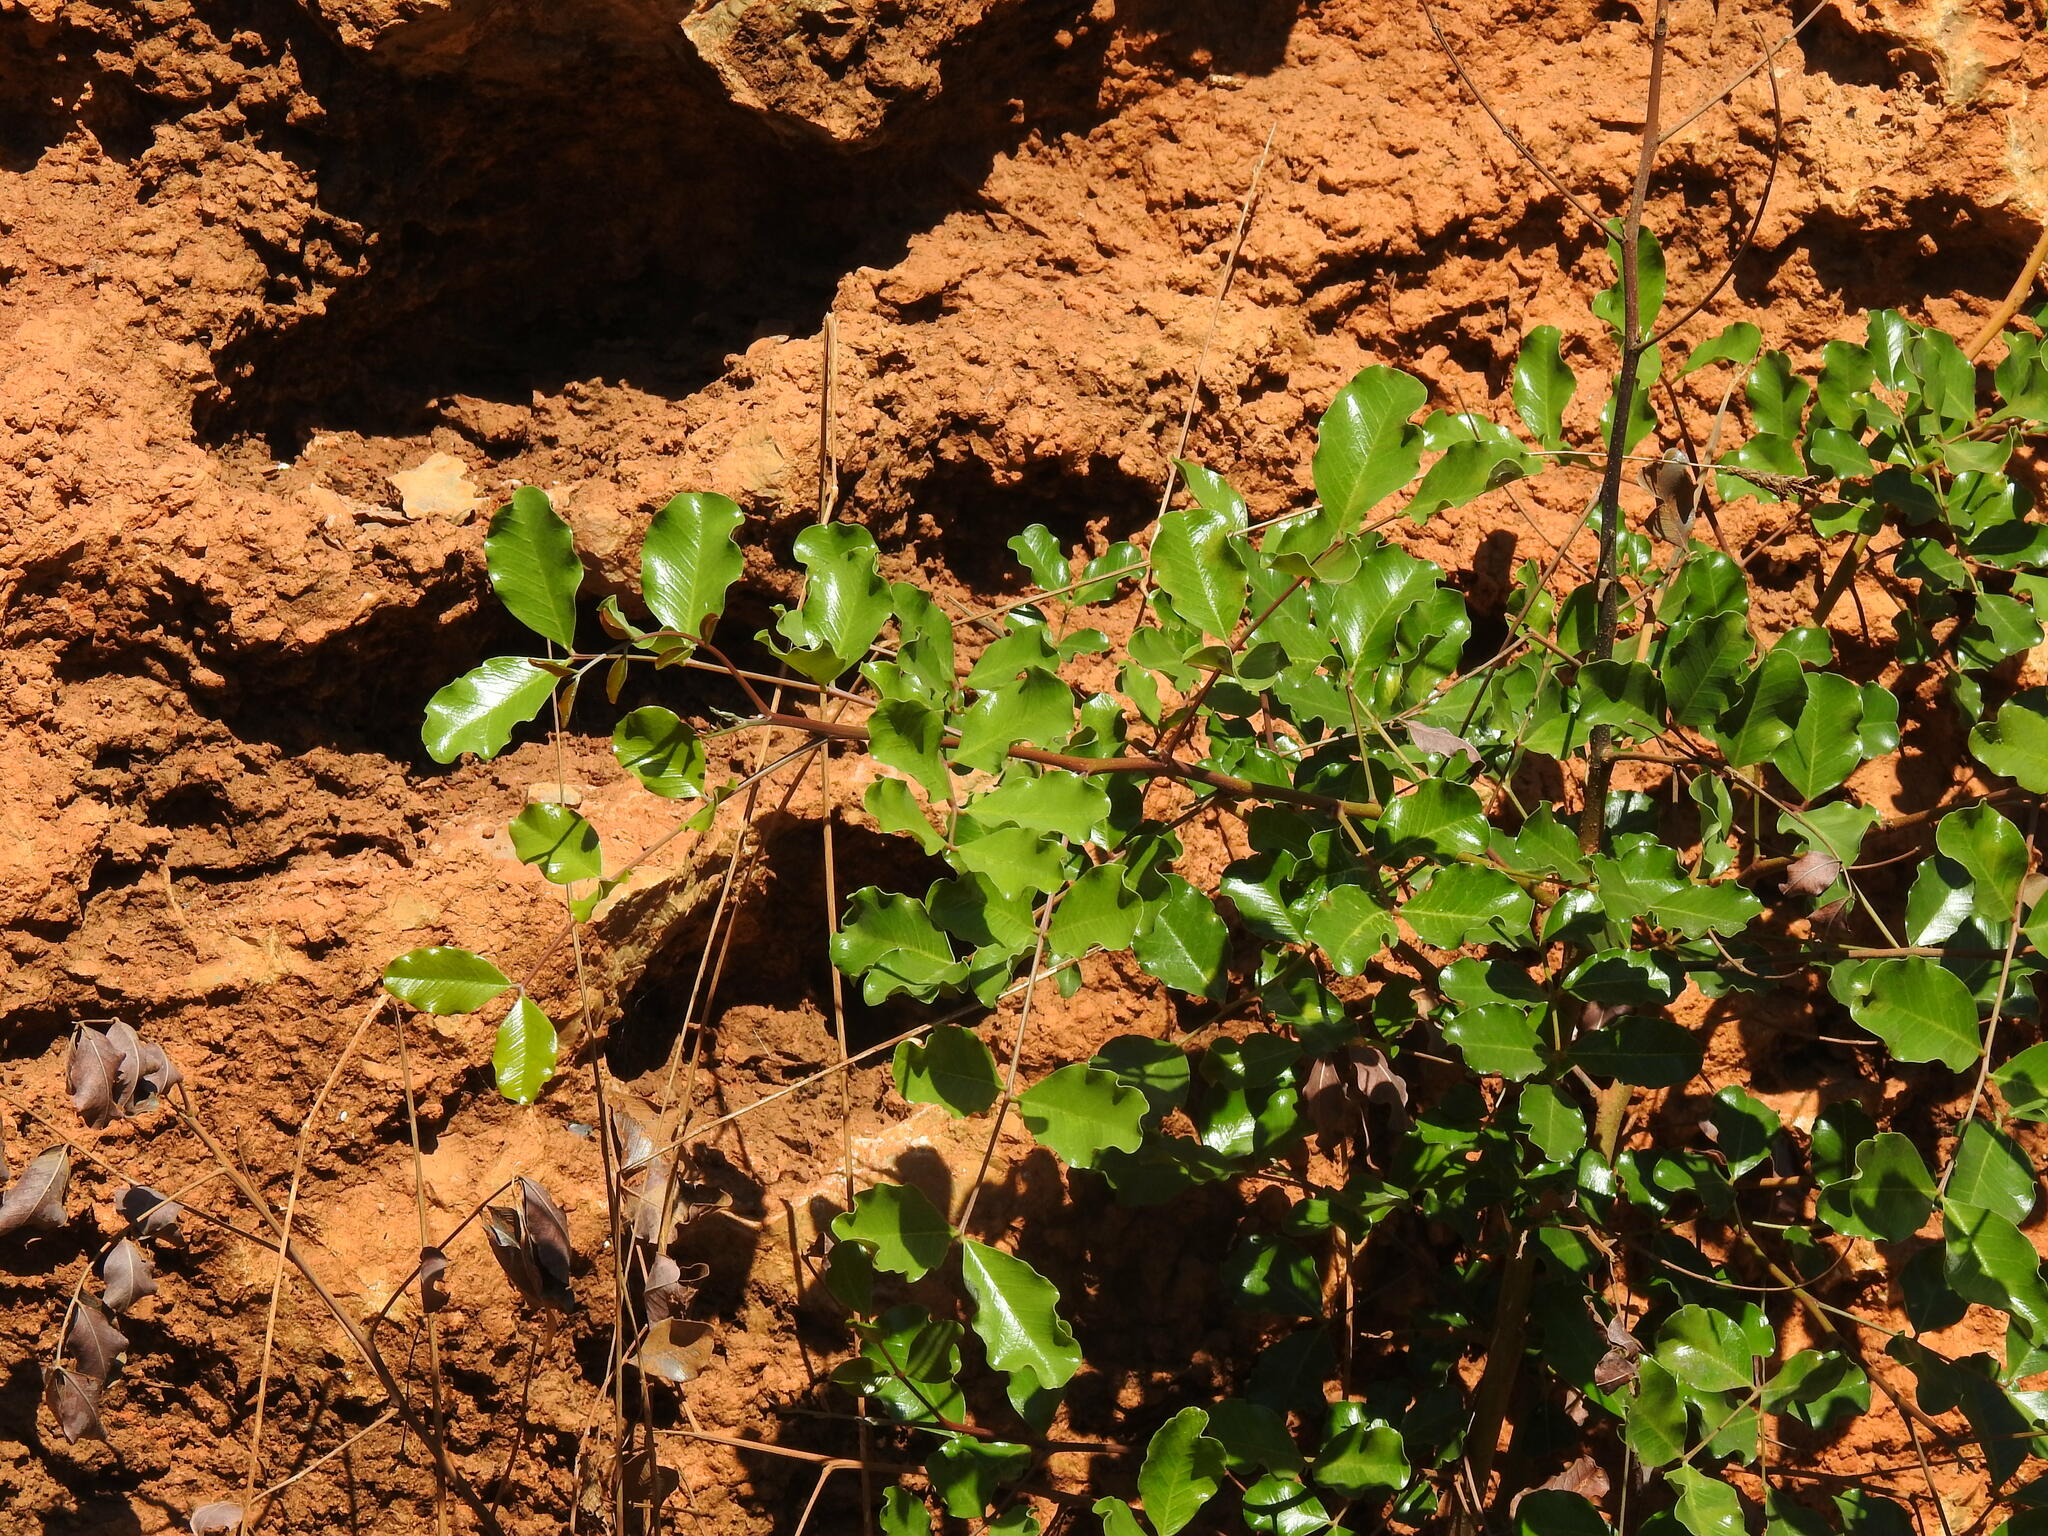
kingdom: Plantae
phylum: Tracheophyta
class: Magnoliopsida
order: Fabales
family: Fabaceae
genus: Ceratonia
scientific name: Ceratonia siliqua
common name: Carob
